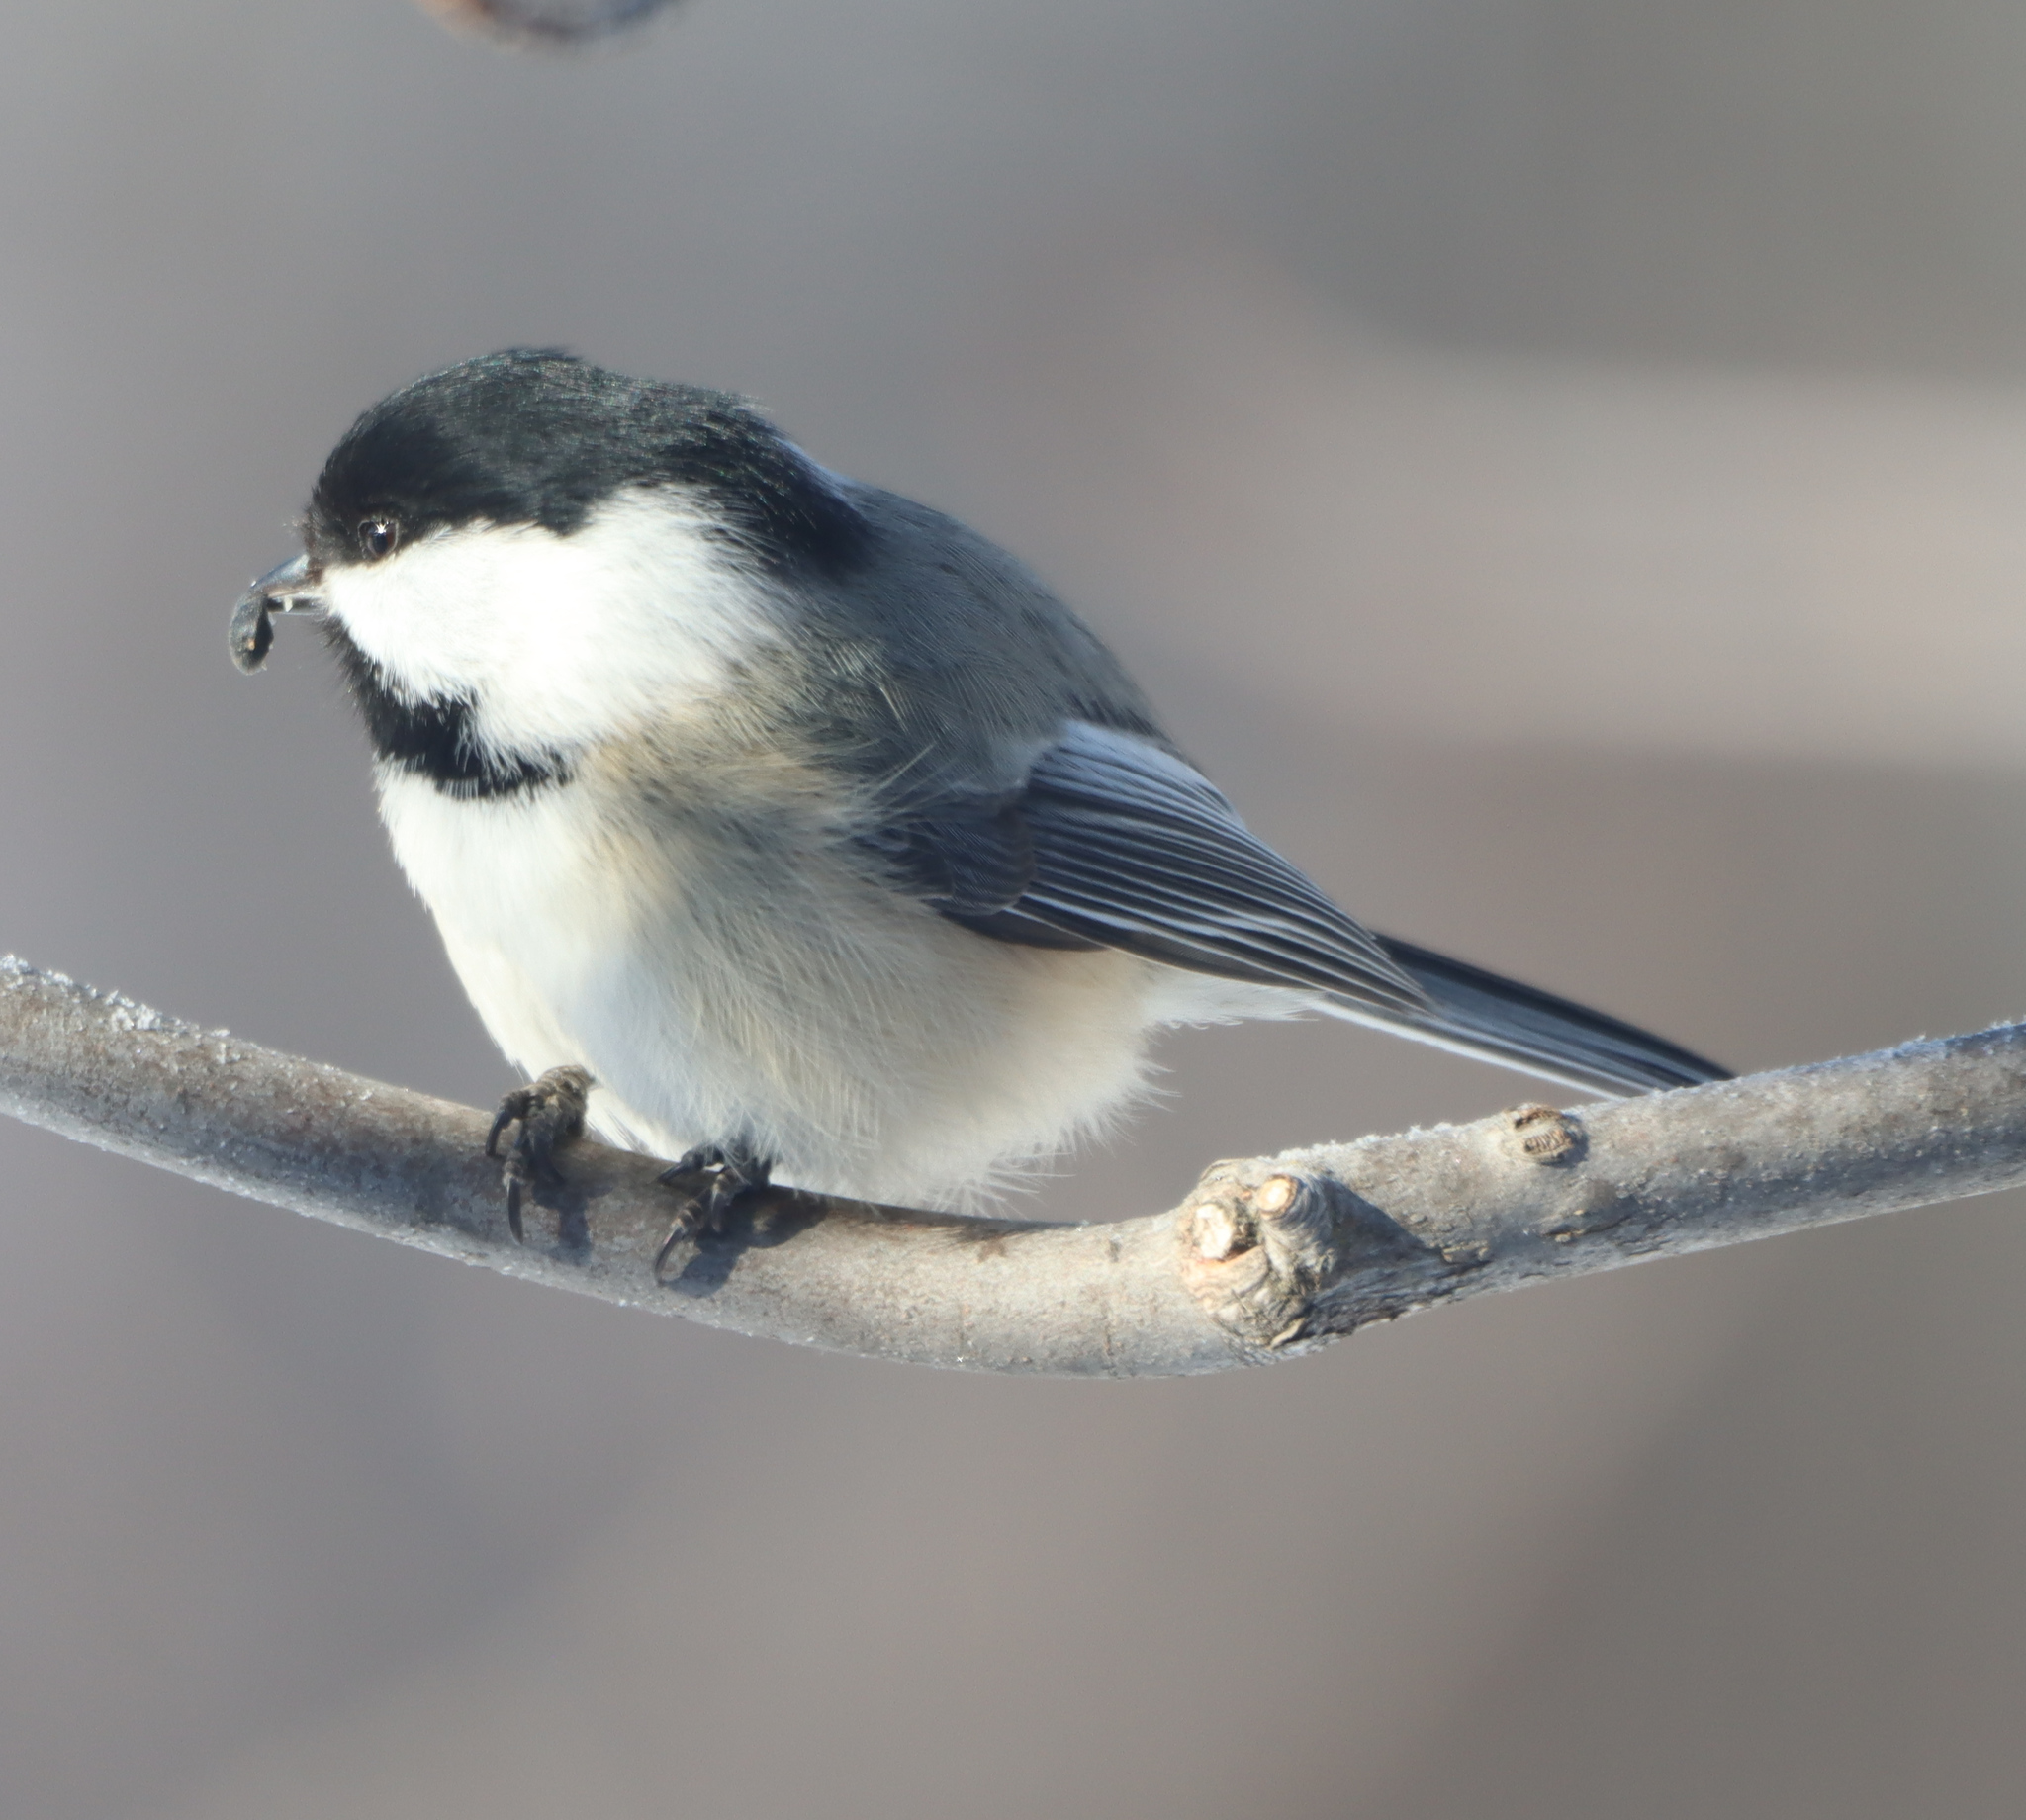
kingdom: Animalia
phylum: Chordata
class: Aves
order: Passeriformes
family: Paridae
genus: Poecile
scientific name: Poecile atricapillus
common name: Black-capped chickadee
